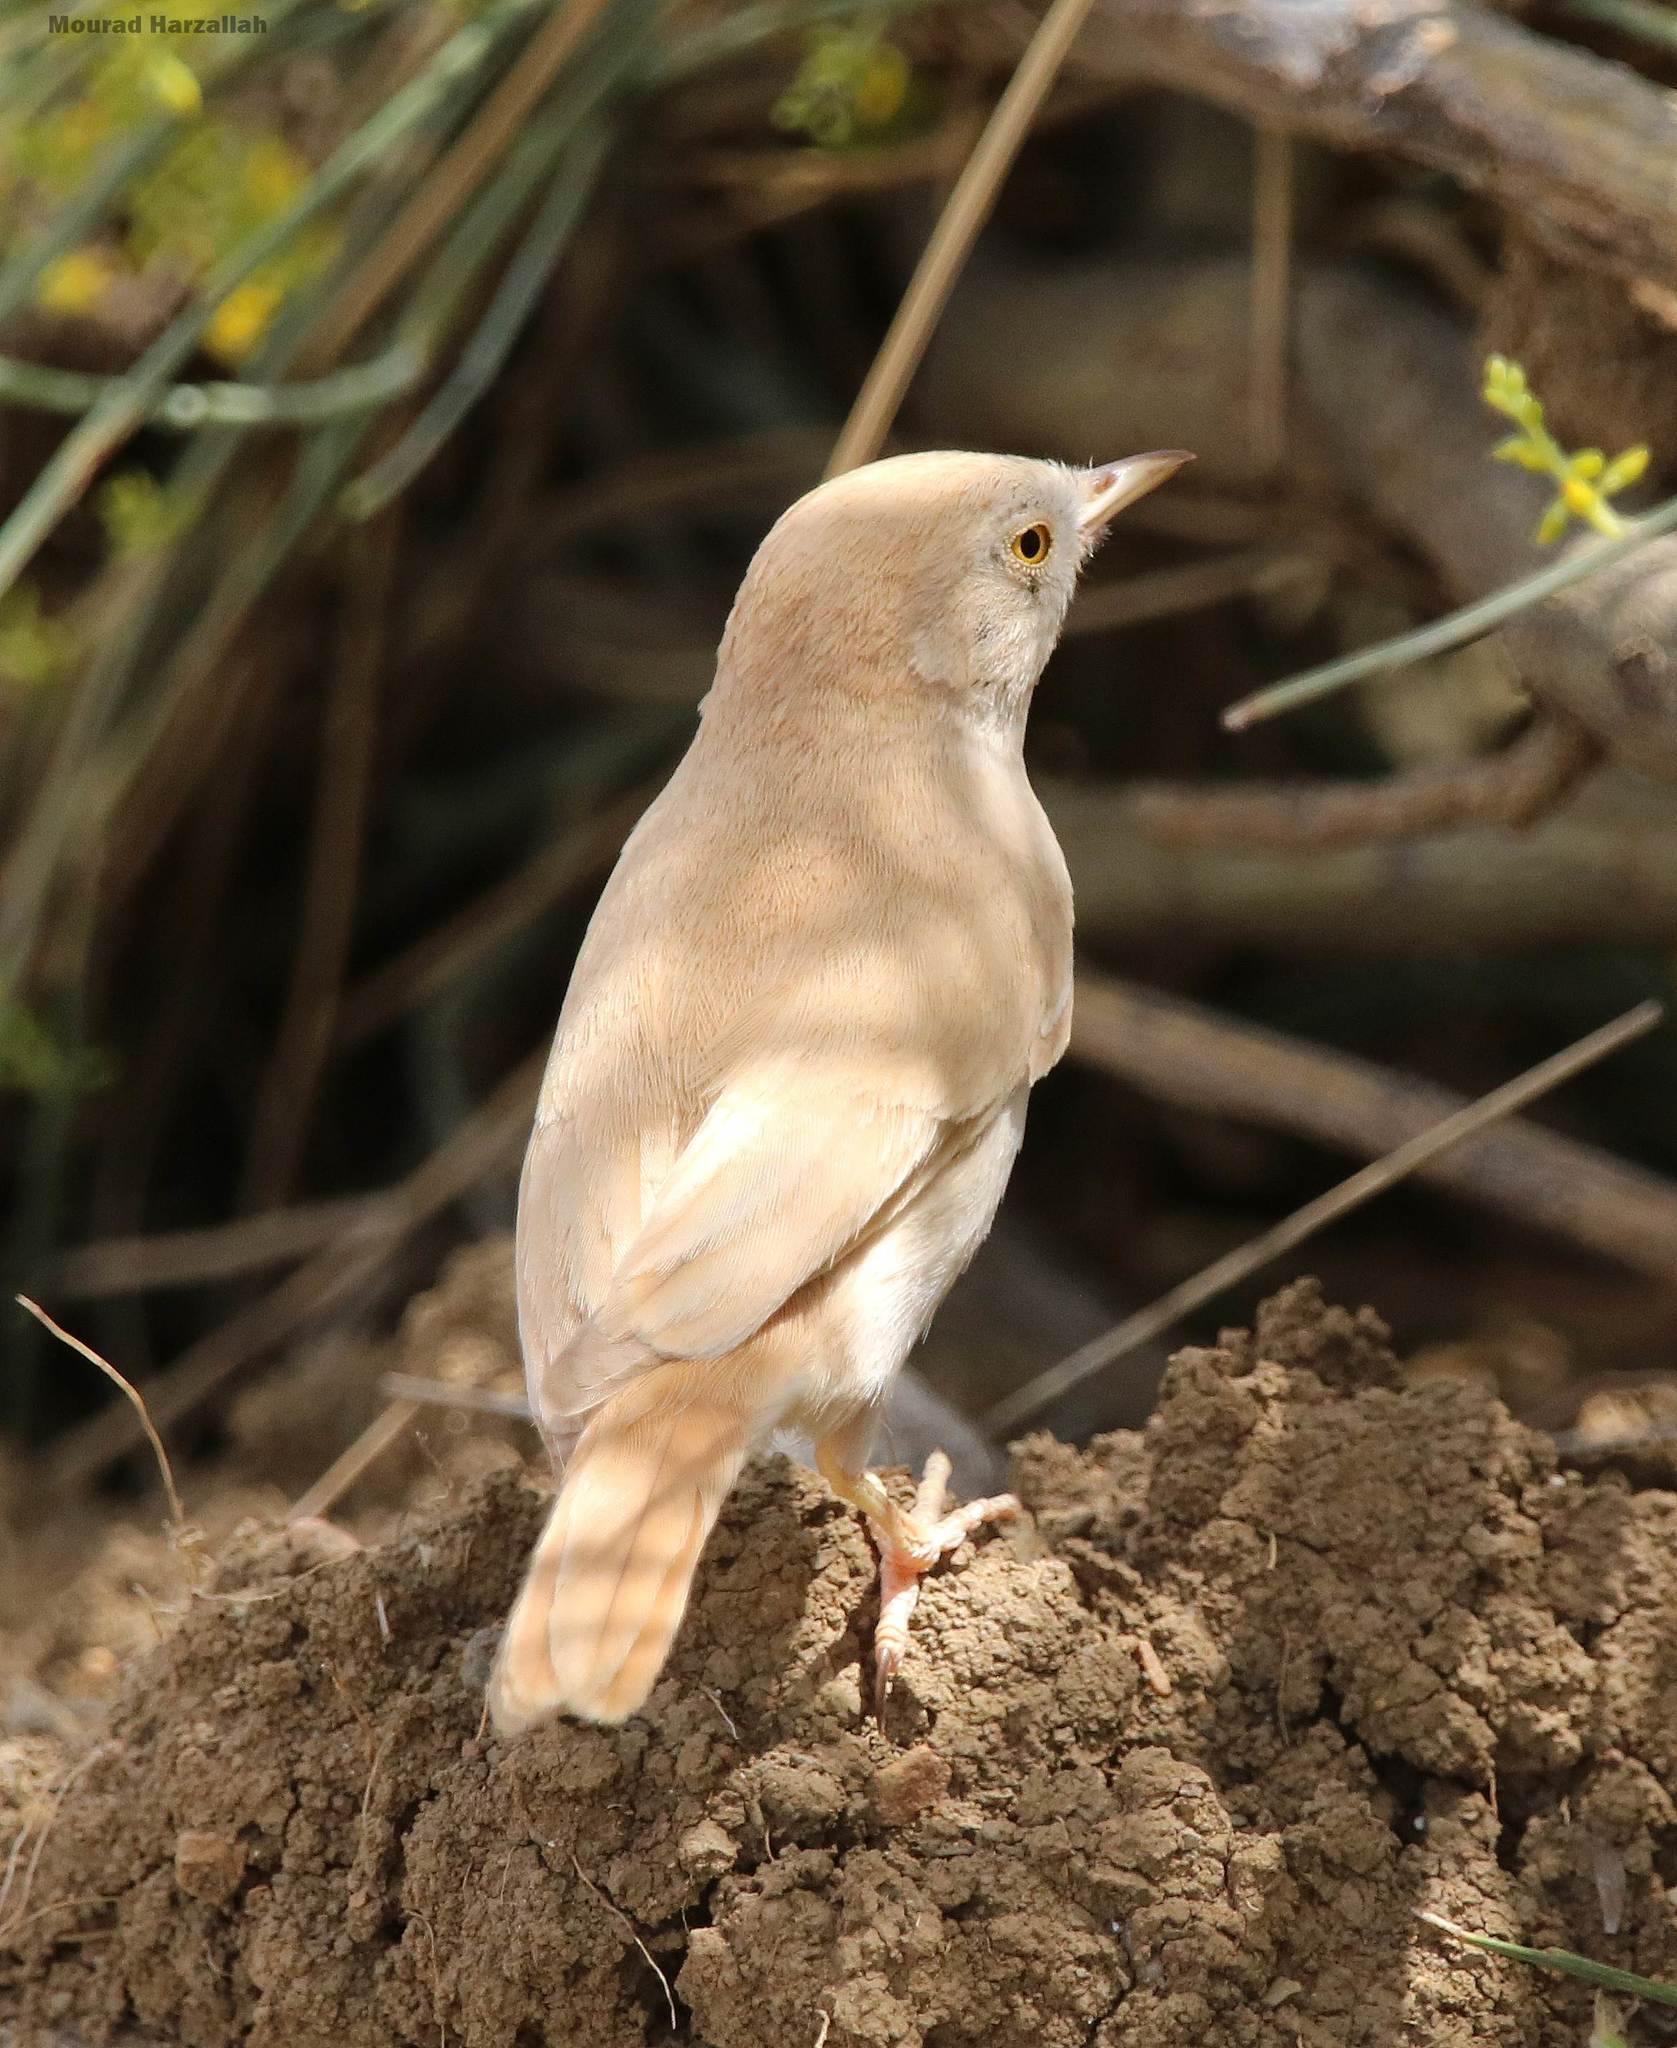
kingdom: Animalia
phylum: Chordata
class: Aves
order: Passeriformes
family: Sylviidae
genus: Sylvia
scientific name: Sylvia deserti
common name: African desert warbler
